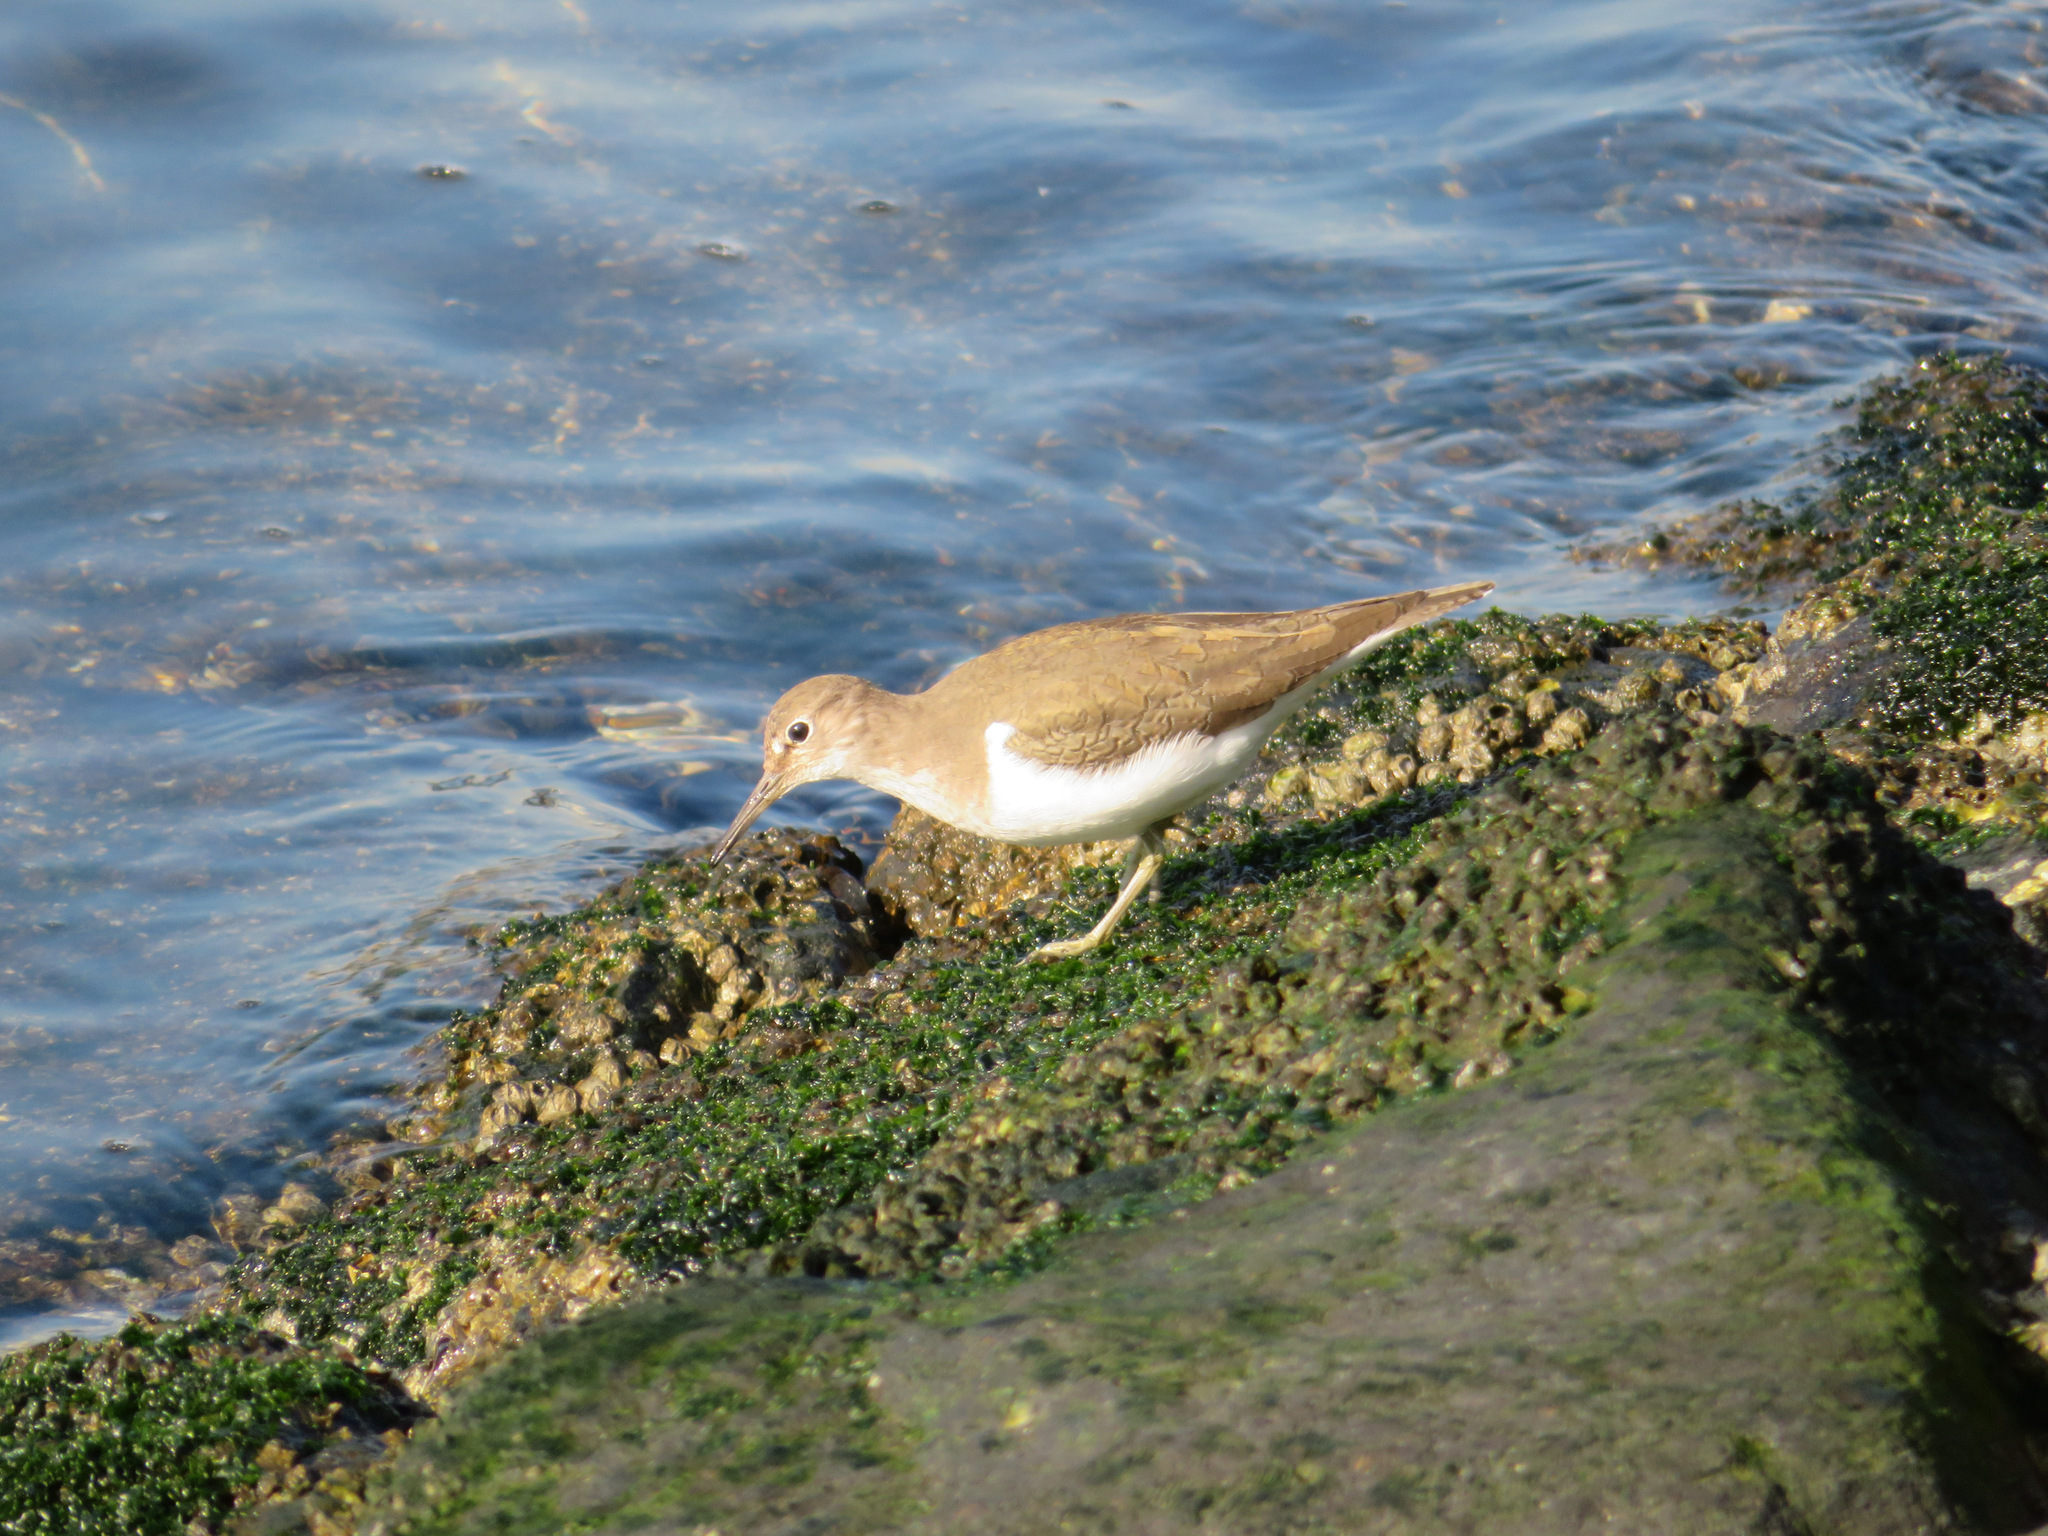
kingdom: Animalia
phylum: Chordata
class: Aves
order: Charadriiformes
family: Scolopacidae
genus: Actitis
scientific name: Actitis hypoleucos
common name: Common sandpiper
